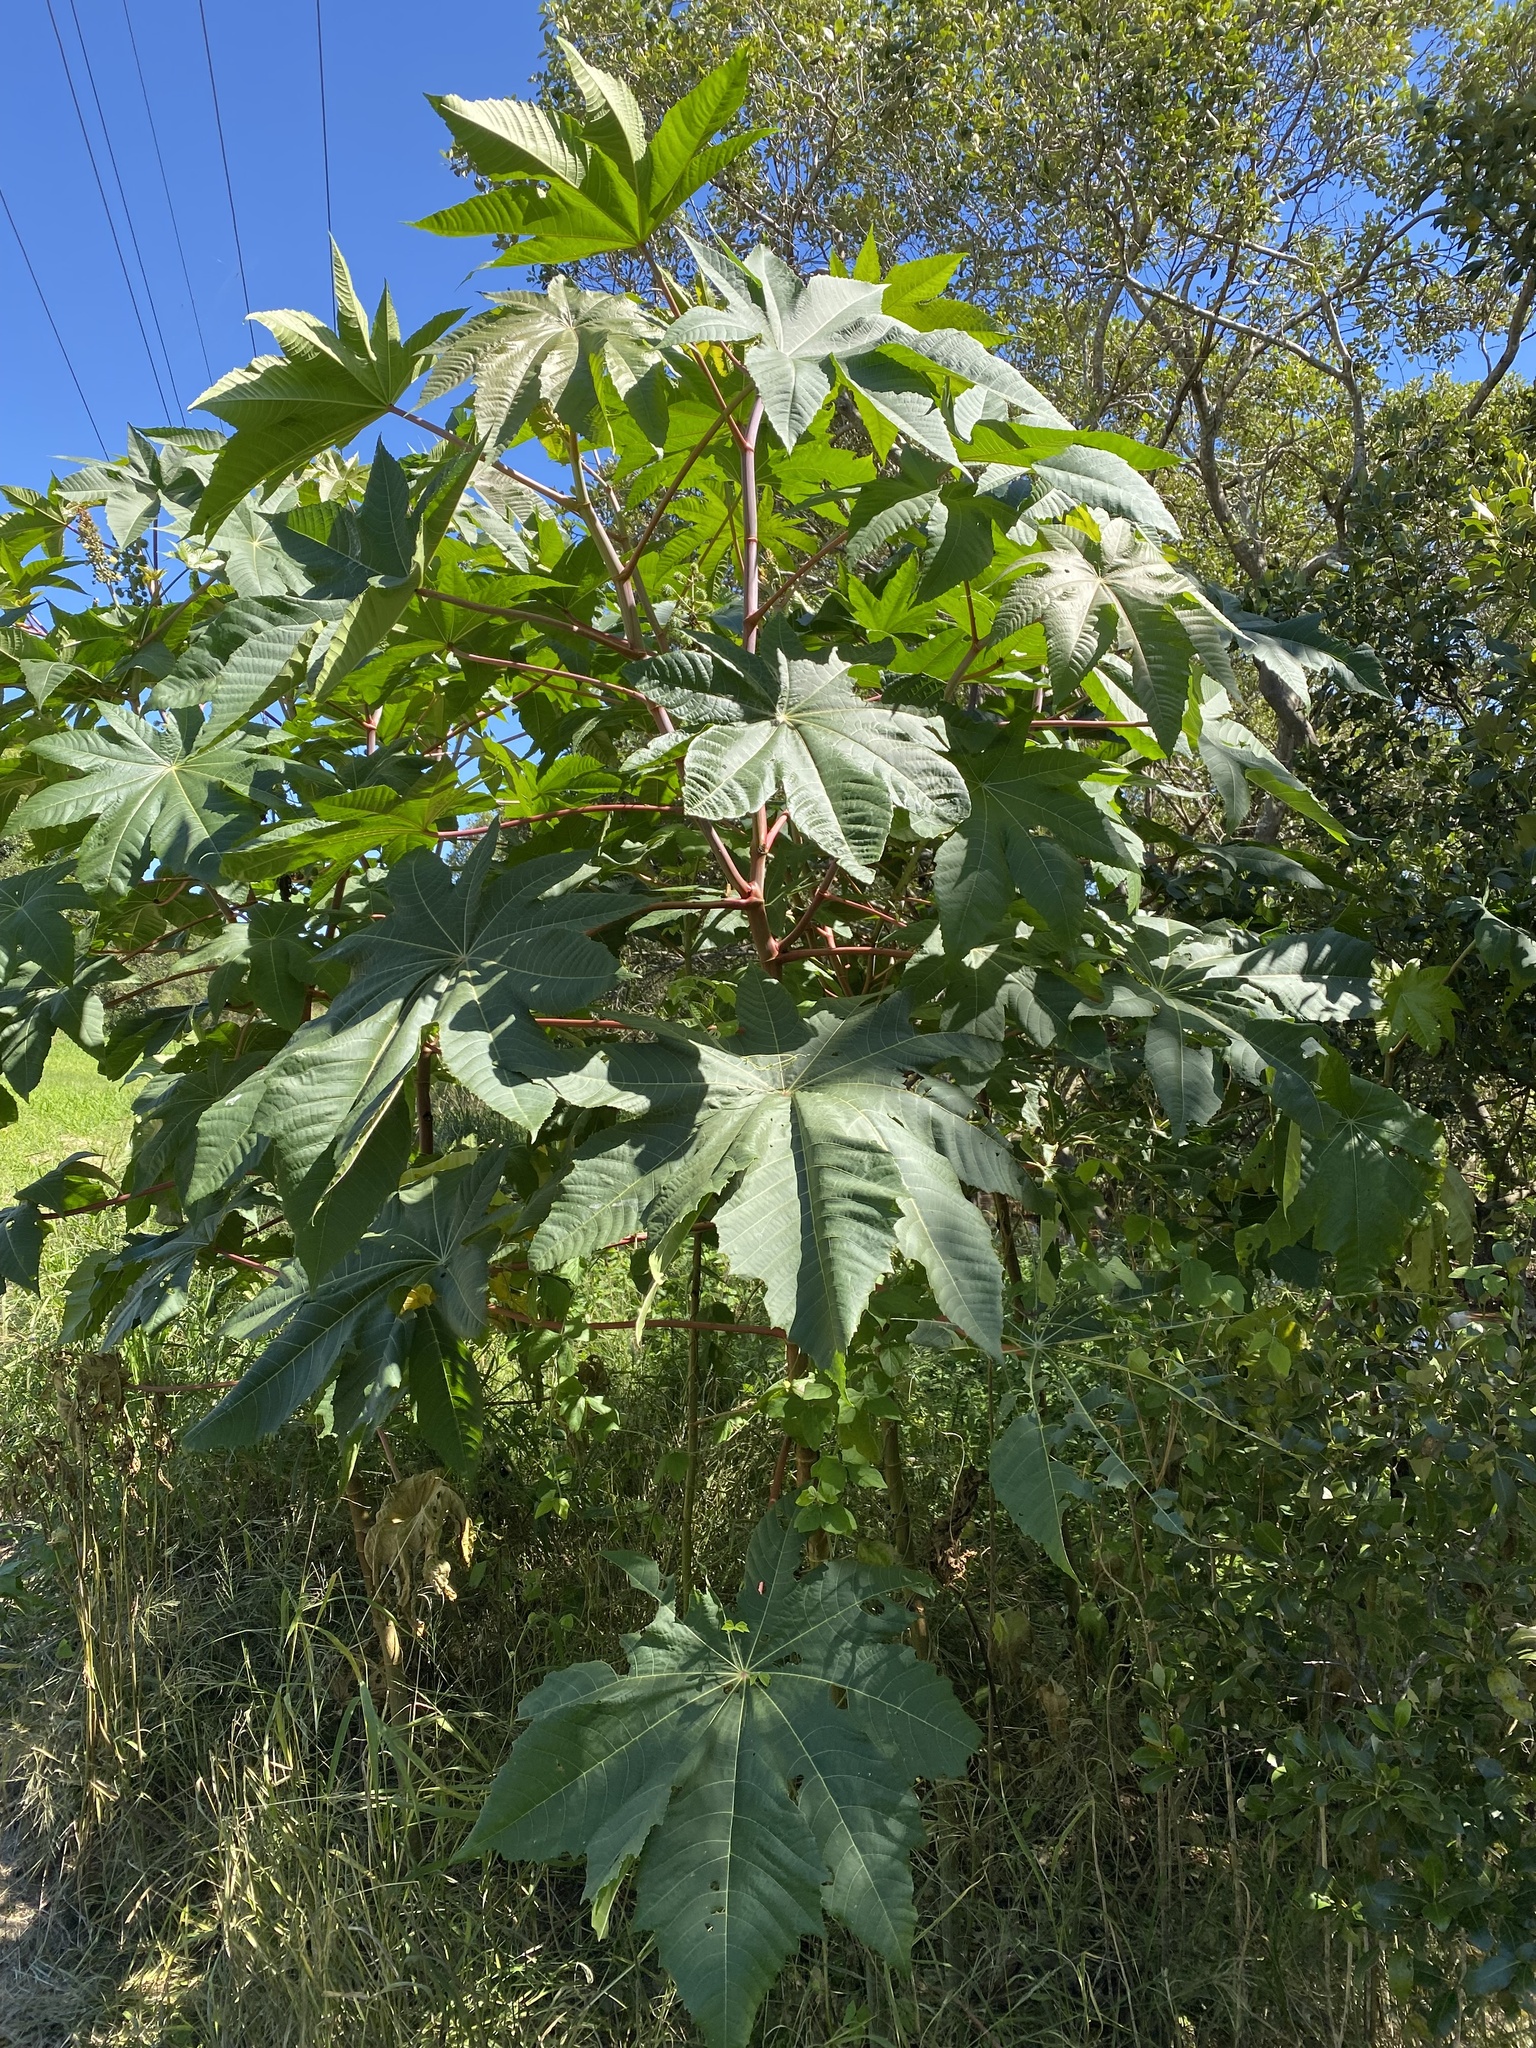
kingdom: Plantae
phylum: Tracheophyta
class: Magnoliopsida
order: Malpighiales
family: Euphorbiaceae
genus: Ricinus
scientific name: Ricinus communis
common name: Castor-oil-plant
